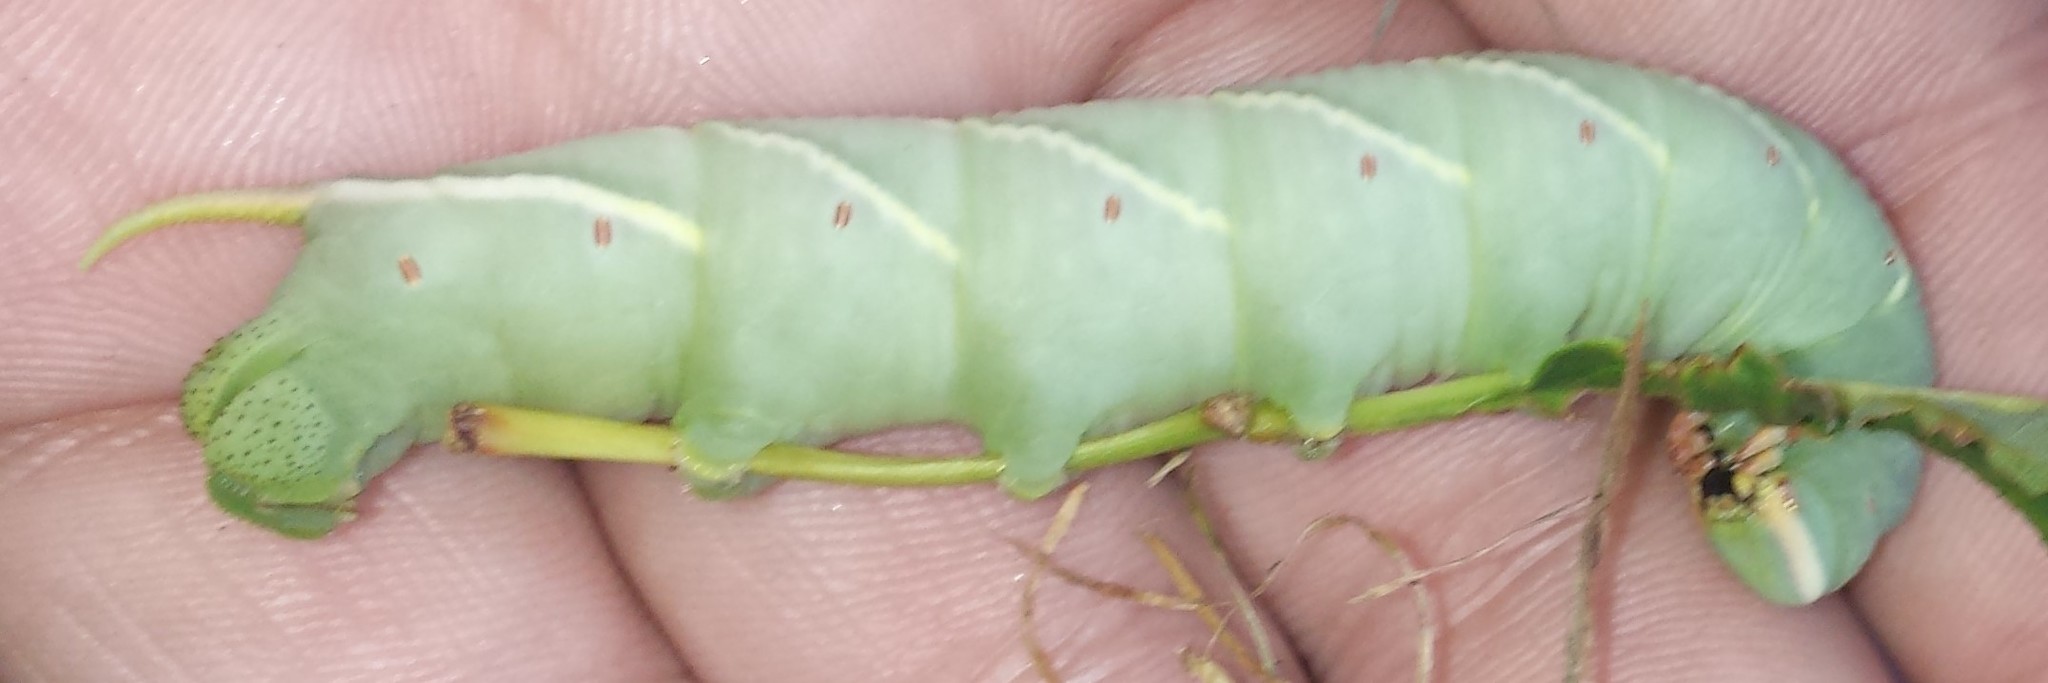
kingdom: Animalia
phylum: Arthropoda
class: Insecta
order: Lepidoptera
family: Sphingidae
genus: Ceratomia
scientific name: Ceratomia undulosa
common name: Waved sphinx
